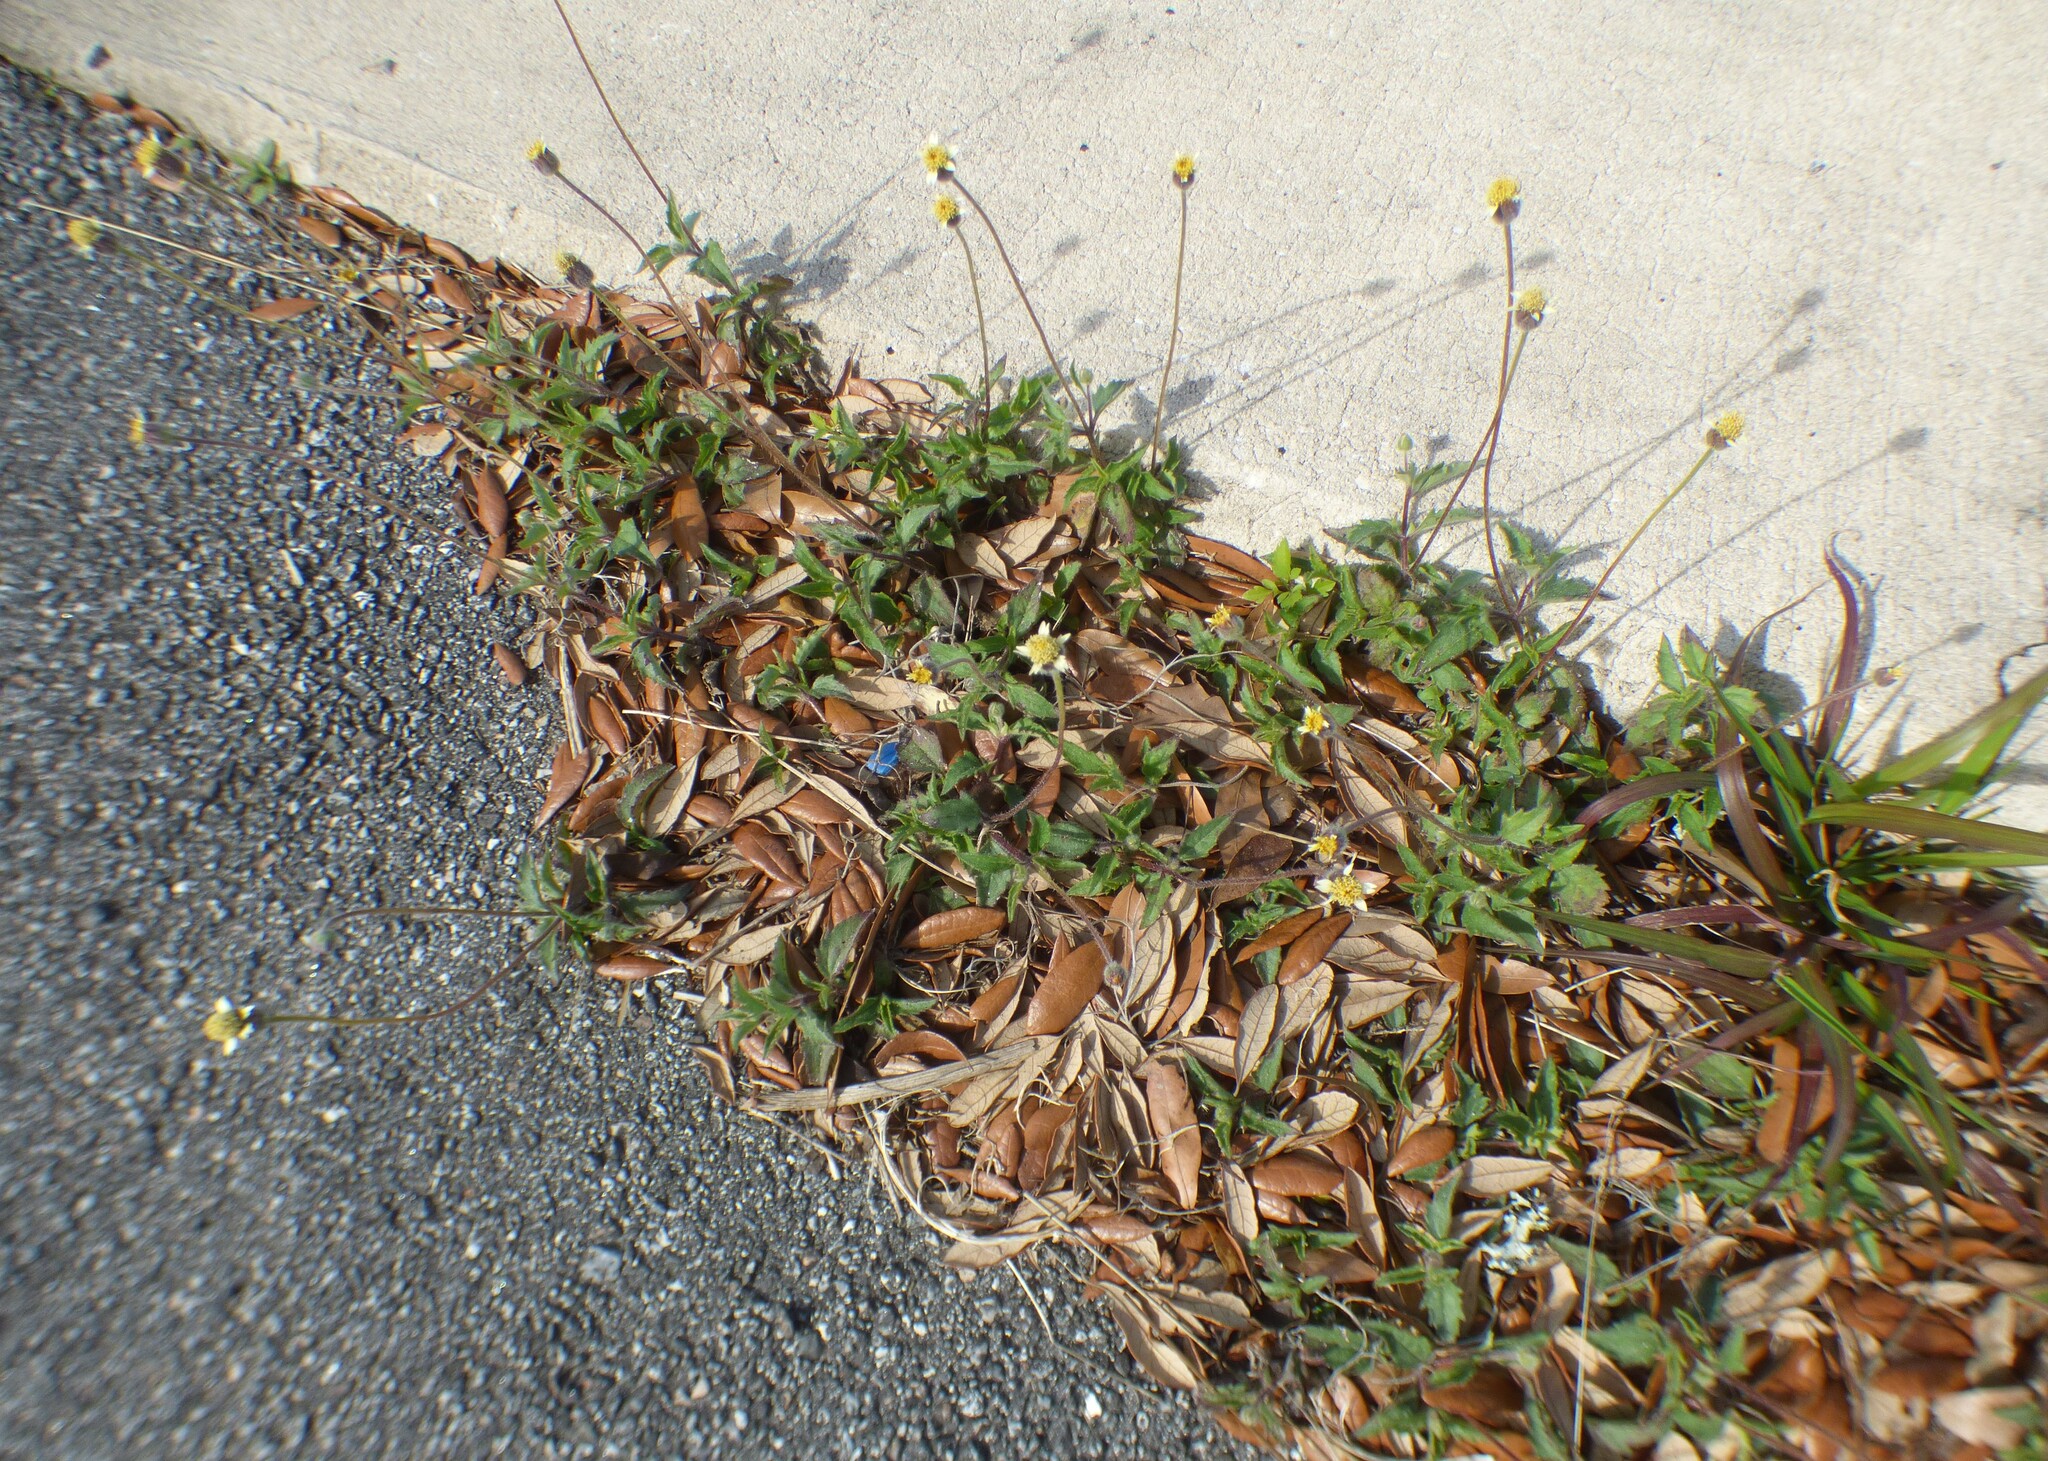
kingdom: Plantae
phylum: Tracheophyta
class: Magnoliopsida
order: Asterales
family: Asteraceae
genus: Tridax
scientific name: Tridax procumbens
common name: Coatbuttons
